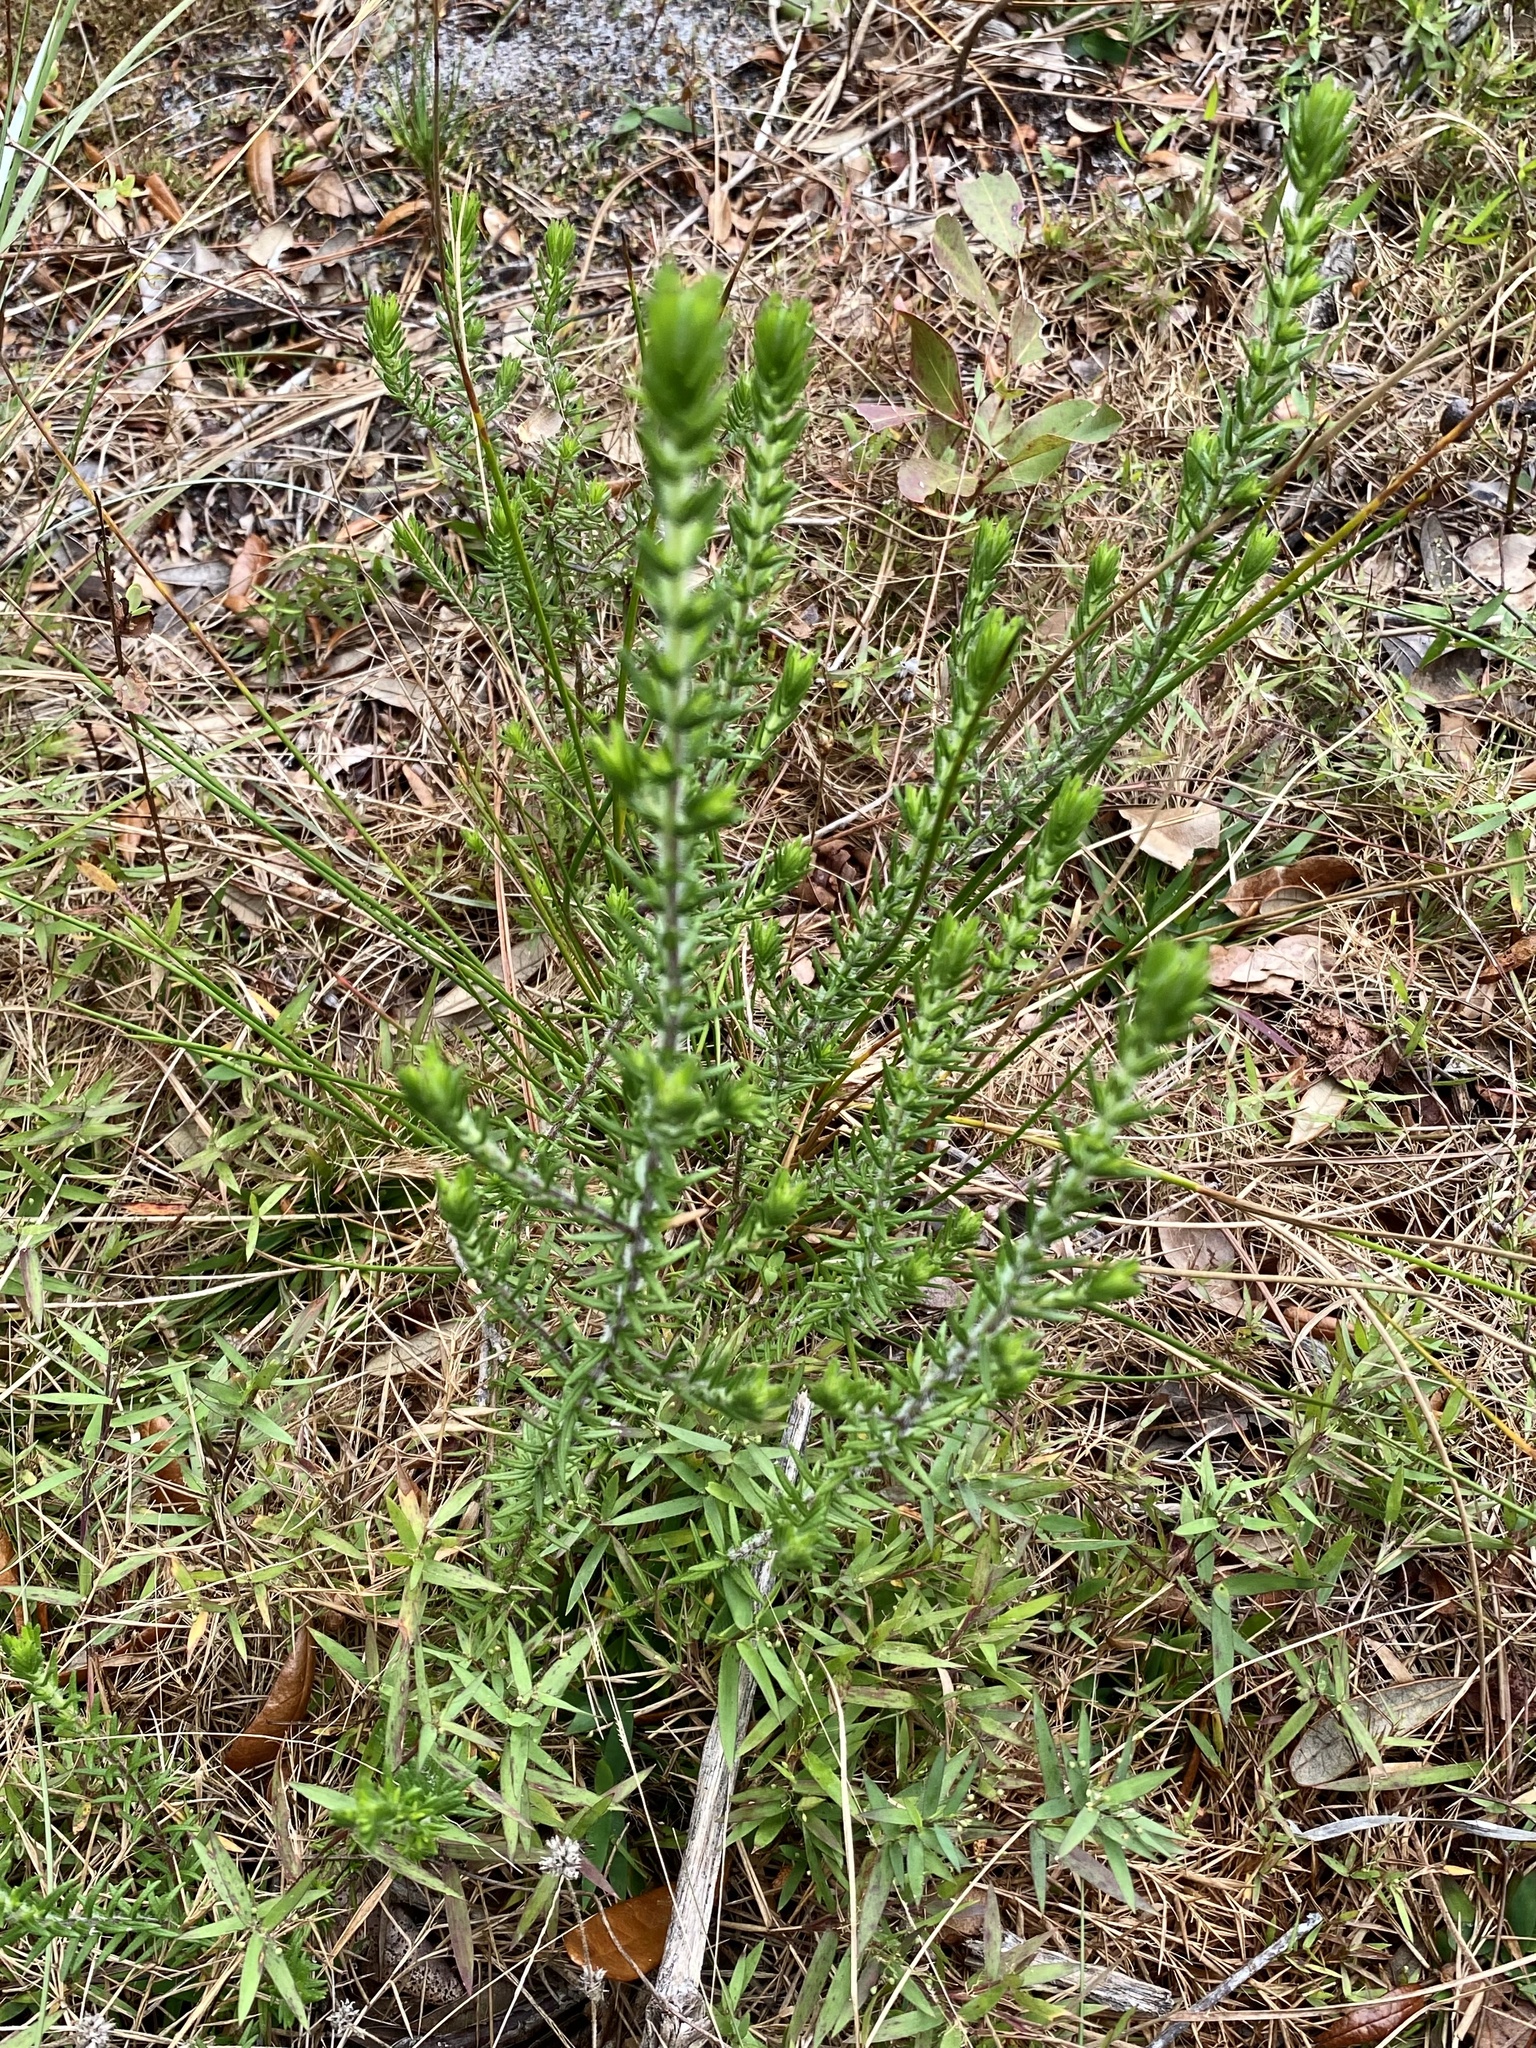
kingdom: Plantae
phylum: Tracheophyta
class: Magnoliopsida
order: Lamiales
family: Lamiaceae
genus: Piloblephis
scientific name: Piloblephis rigida
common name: Wild pennyroyal
